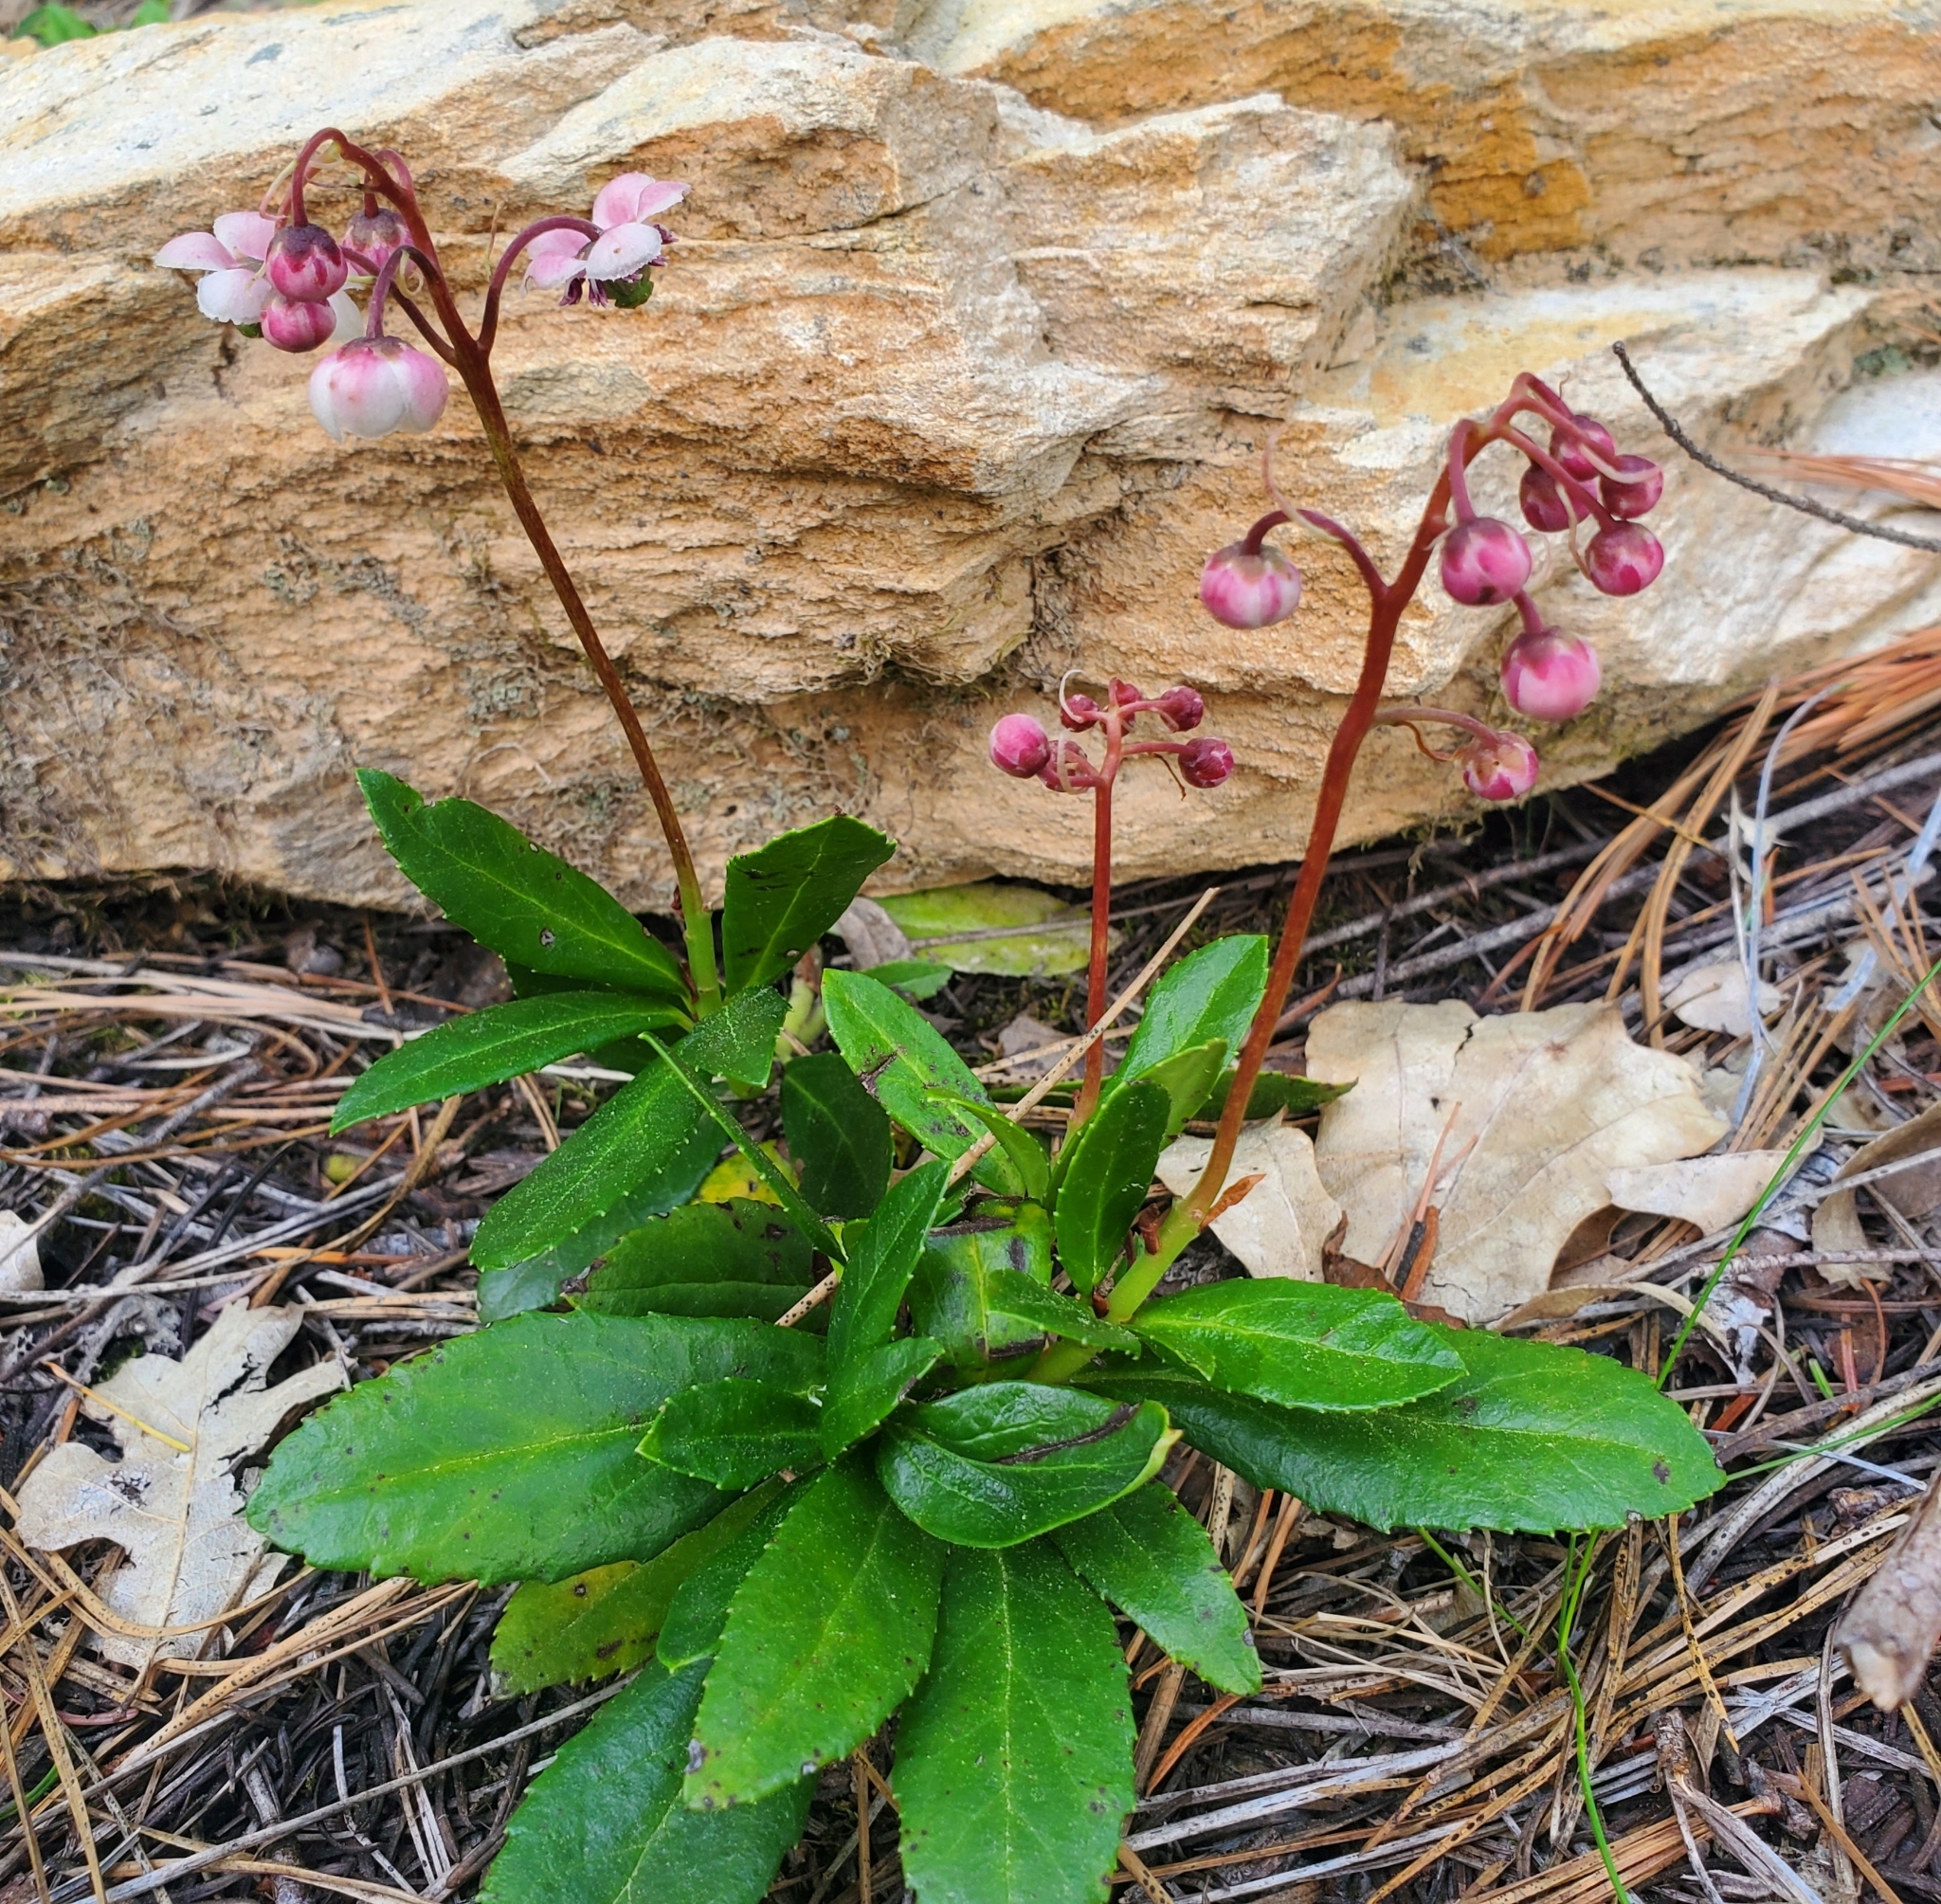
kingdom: Plantae
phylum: Tracheophyta
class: Magnoliopsida
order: Ericales
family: Ericaceae
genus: Chimaphila
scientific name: Chimaphila umbellata
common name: Pipsissewa
